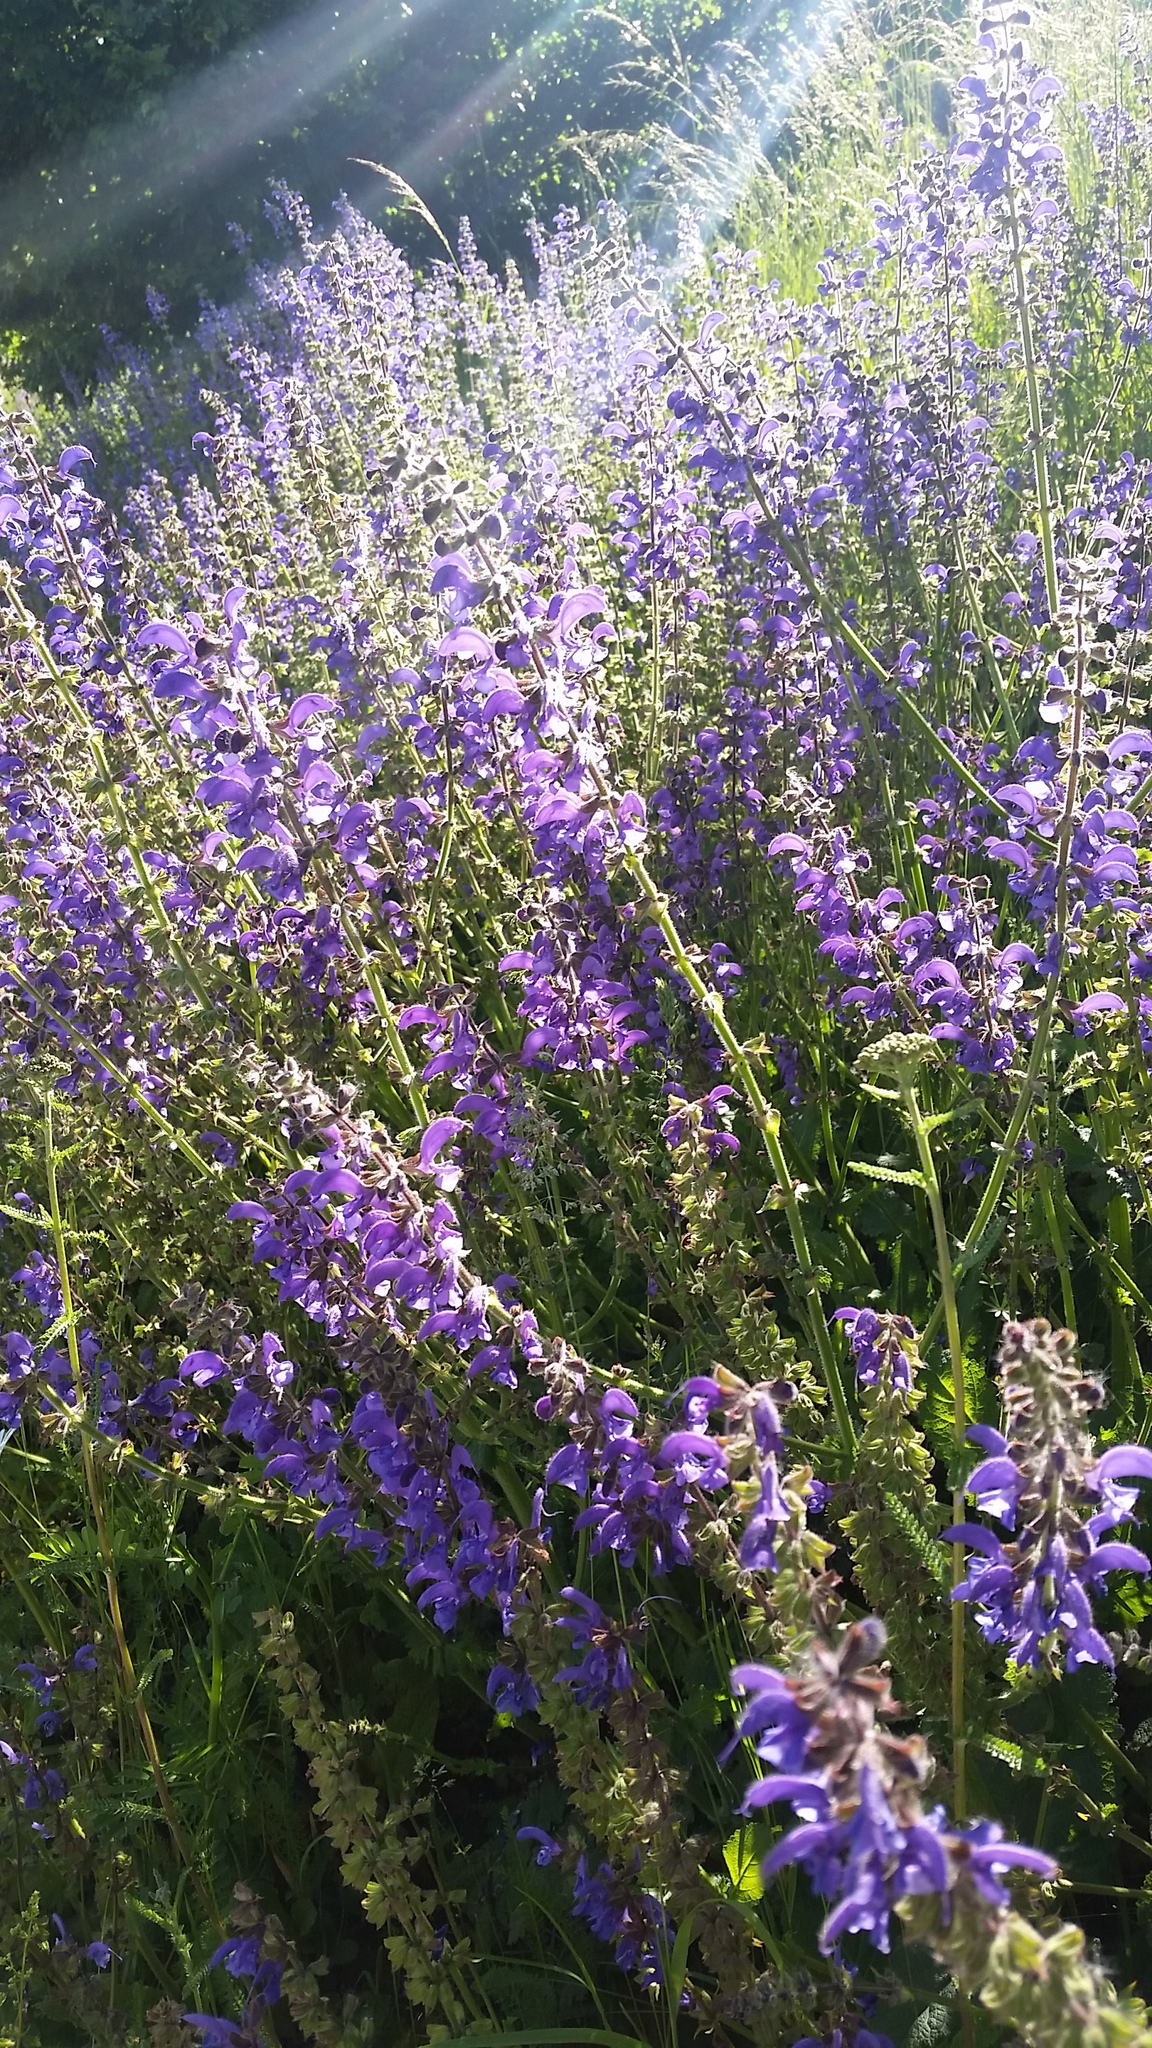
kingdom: Plantae
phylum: Tracheophyta
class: Magnoliopsida
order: Lamiales
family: Lamiaceae
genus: Salvia
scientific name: Salvia pratensis
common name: Meadow sage
